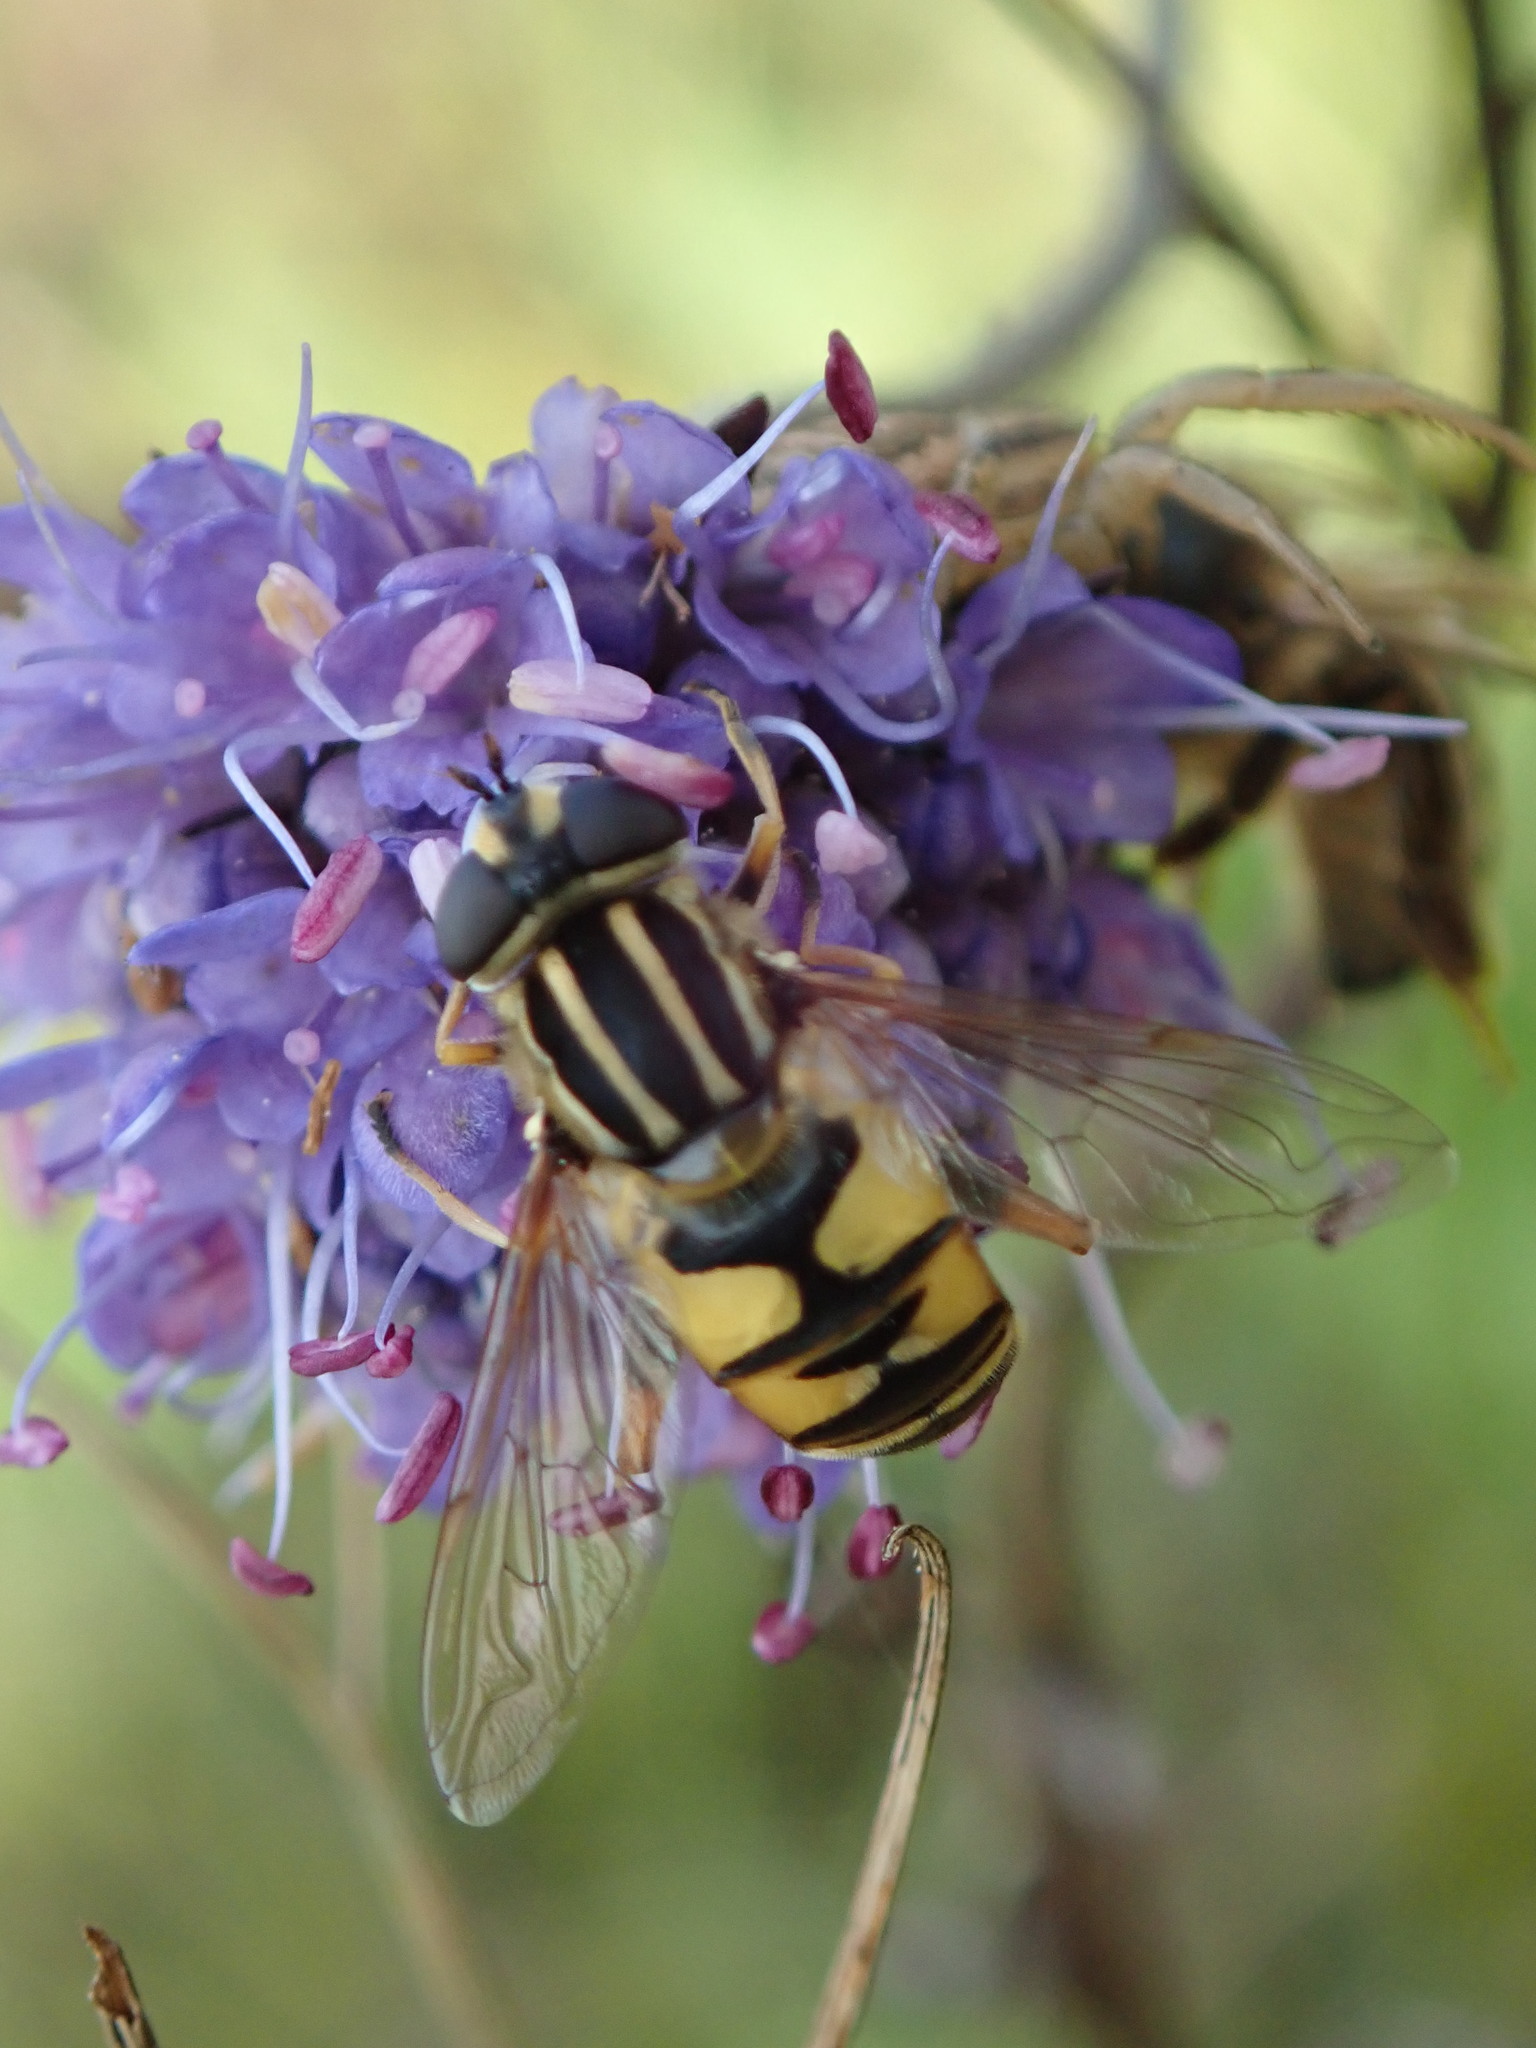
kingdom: Animalia
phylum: Arthropoda
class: Insecta
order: Diptera
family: Syrphidae
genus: Helophilus
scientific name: Helophilus pendulus
